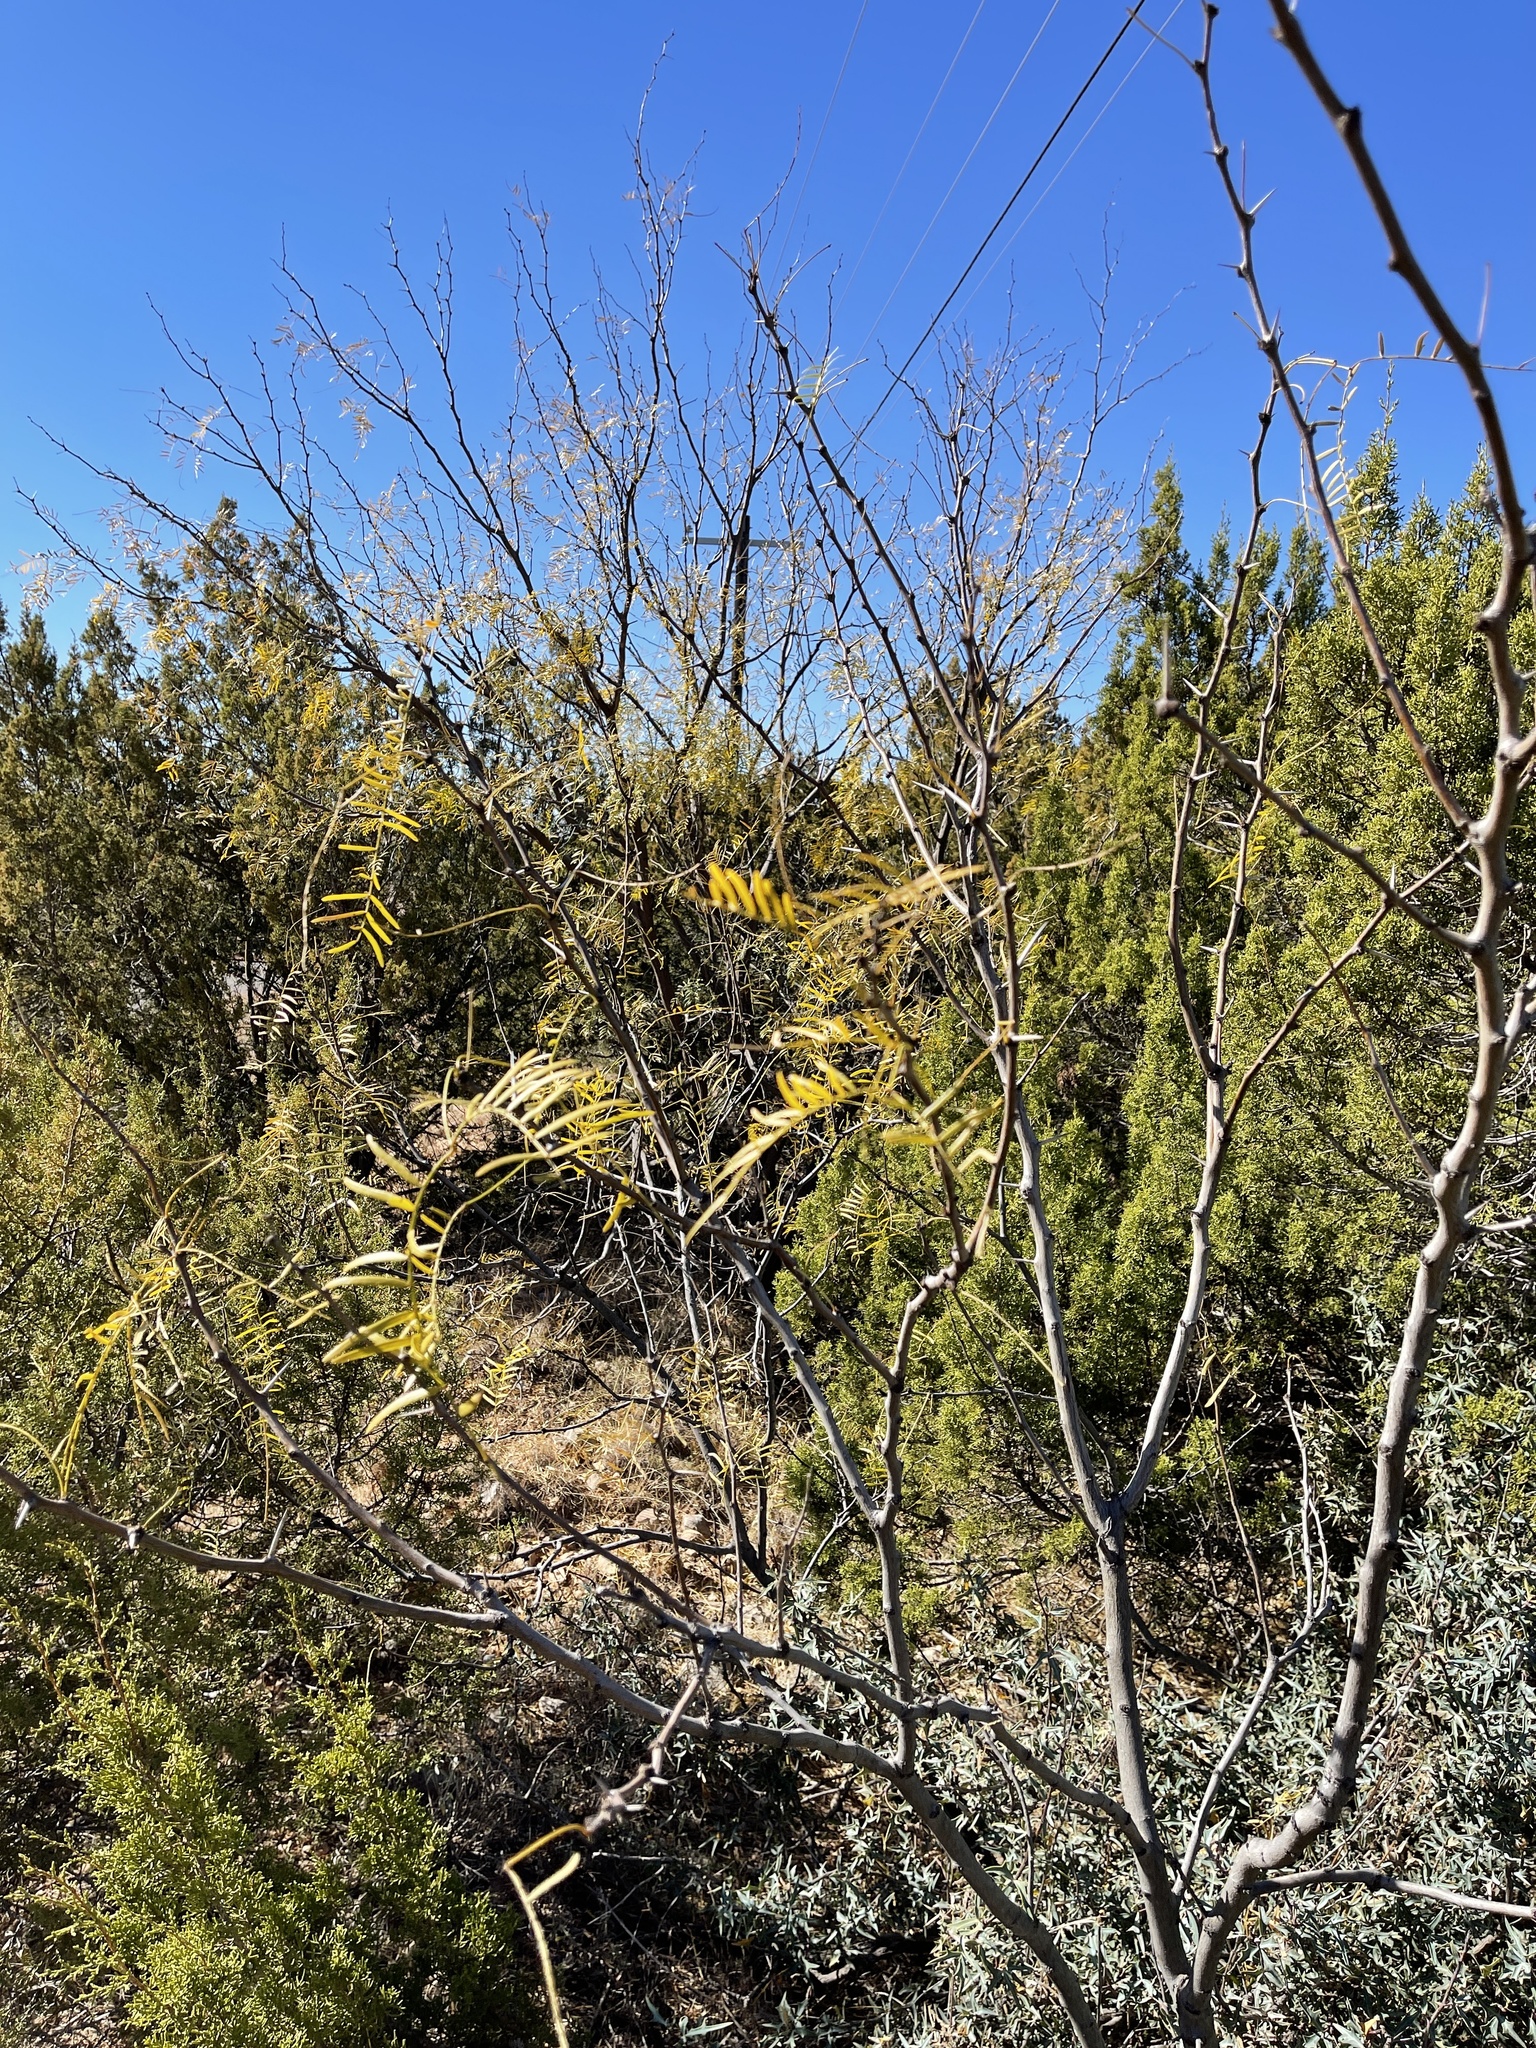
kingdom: Plantae
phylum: Tracheophyta
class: Magnoliopsida
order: Fabales
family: Fabaceae
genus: Prosopis
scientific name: Prosopis glandulosa
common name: Honey mesquite
